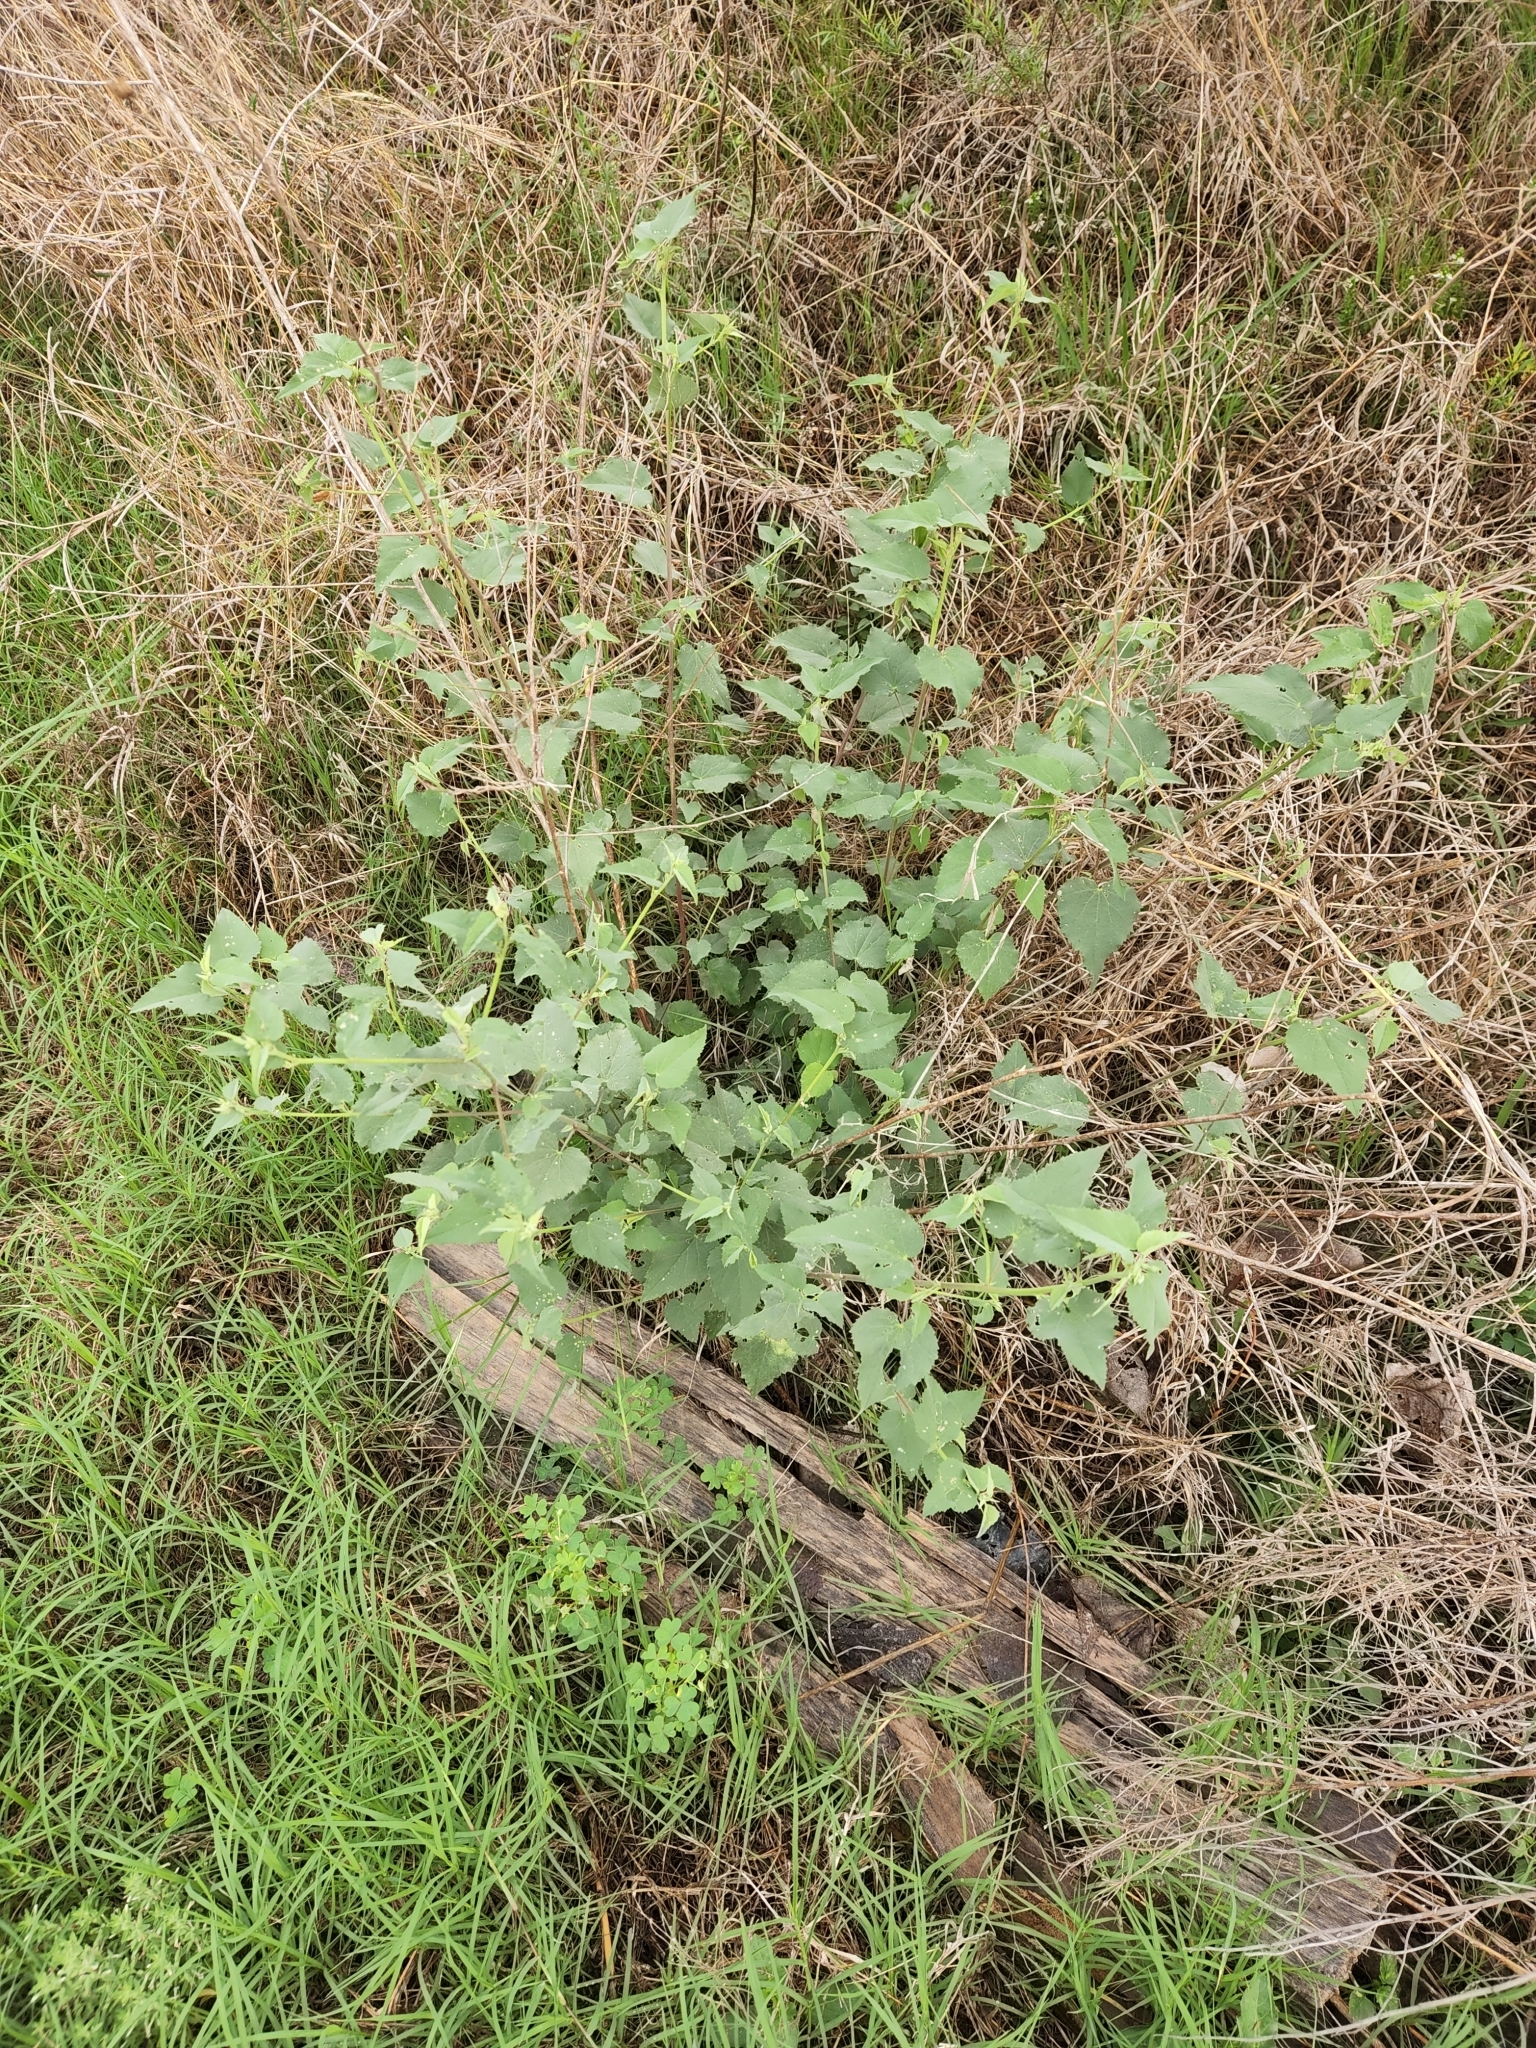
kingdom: Plantae
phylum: Tracheophyta
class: Magnoliopsida
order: Malvales
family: Malvaceae
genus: Abutilon
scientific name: Abutilon fruticosum
